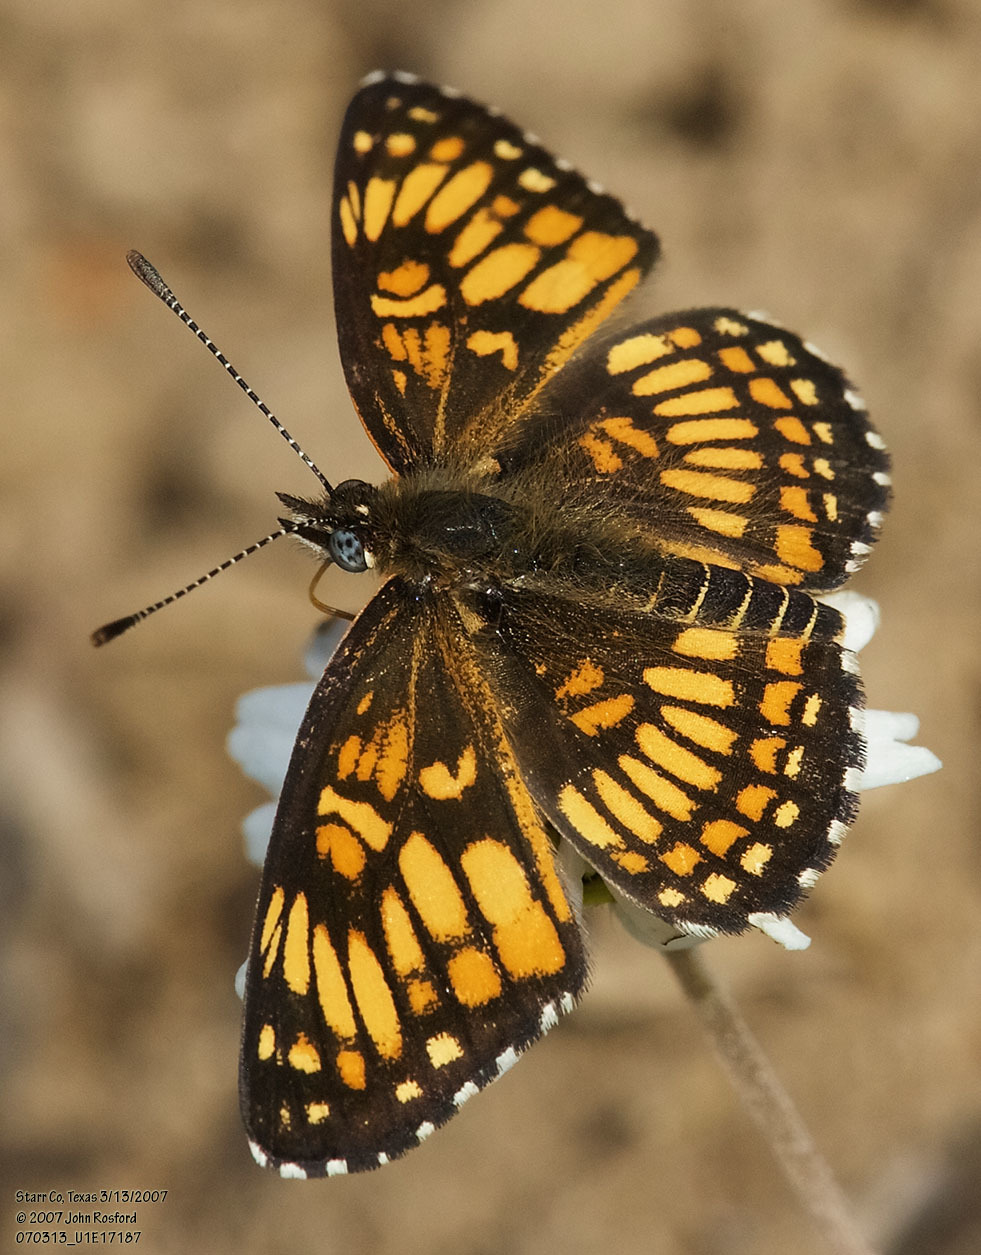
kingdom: Animalia
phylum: Arthropoda
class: Insecta
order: Lepidoptera
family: Nymphalidae
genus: Thessalia
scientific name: Thessalia theona
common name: Nymphalid moth
